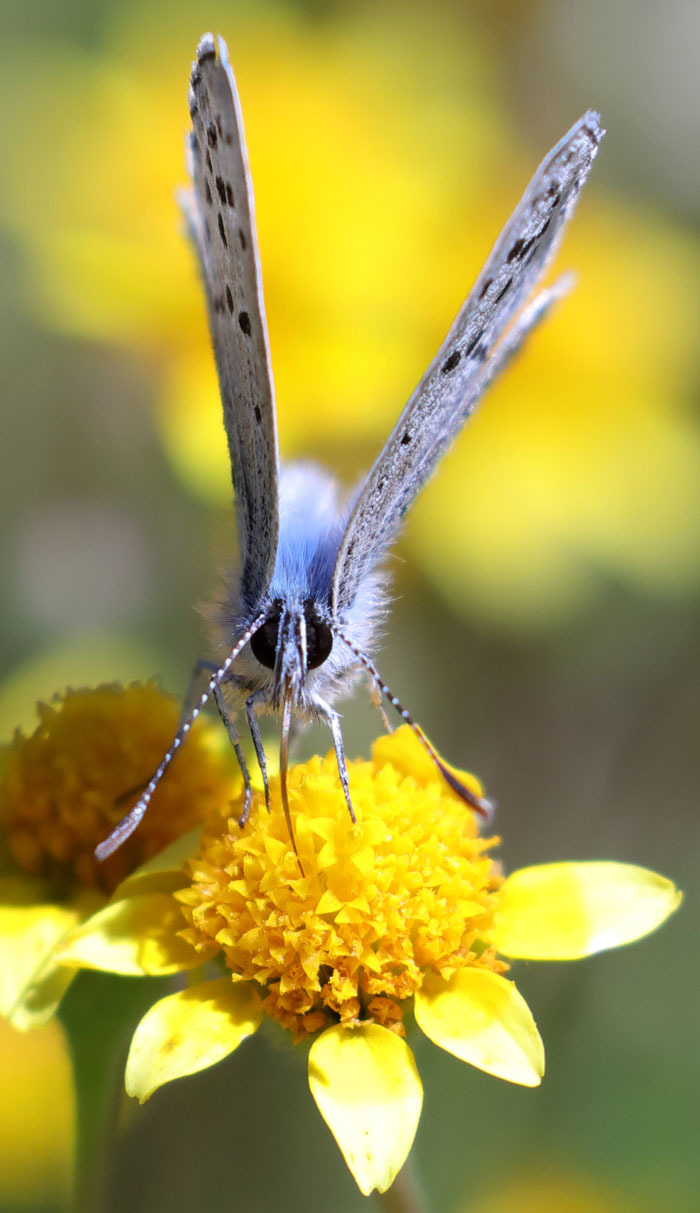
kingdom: Animalia
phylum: Arthropoda
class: Insecta
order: Lepidoptera
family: Lycaenidae
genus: Icaricia
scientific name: Icaricia acmon
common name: Acmon blue
